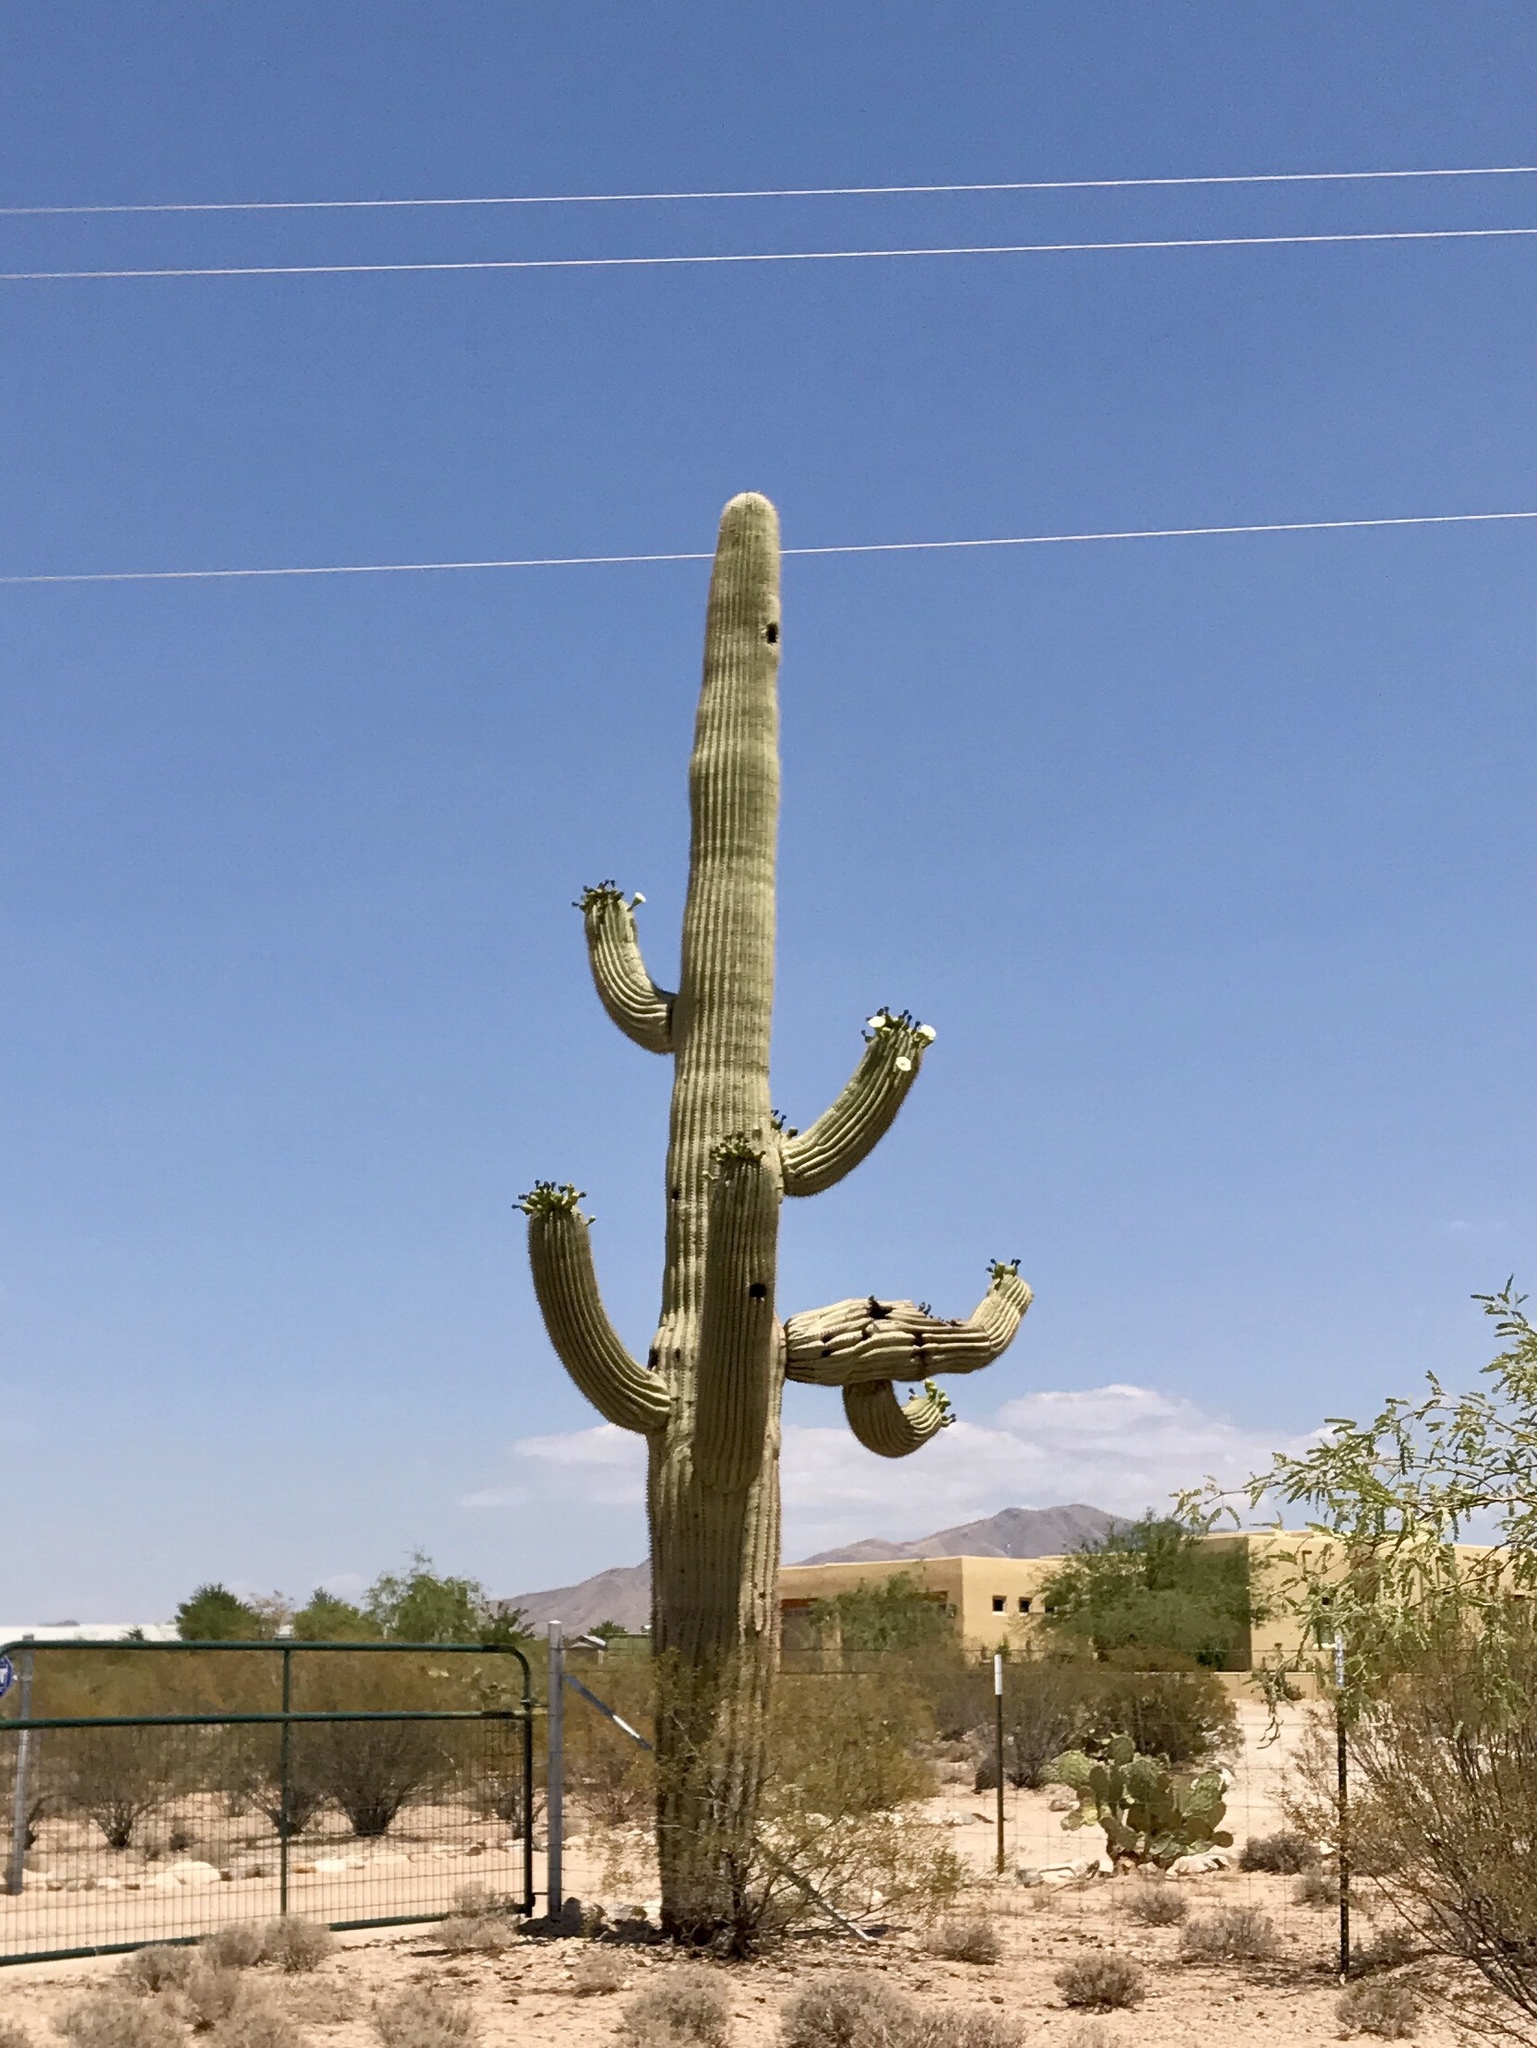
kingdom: Plantae
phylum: Tracheophyta
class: Magnoliopsida
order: Caryophyllales
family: Cactaceae
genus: Carnegiea
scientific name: Carnegiea gigantea
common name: Saguaro
